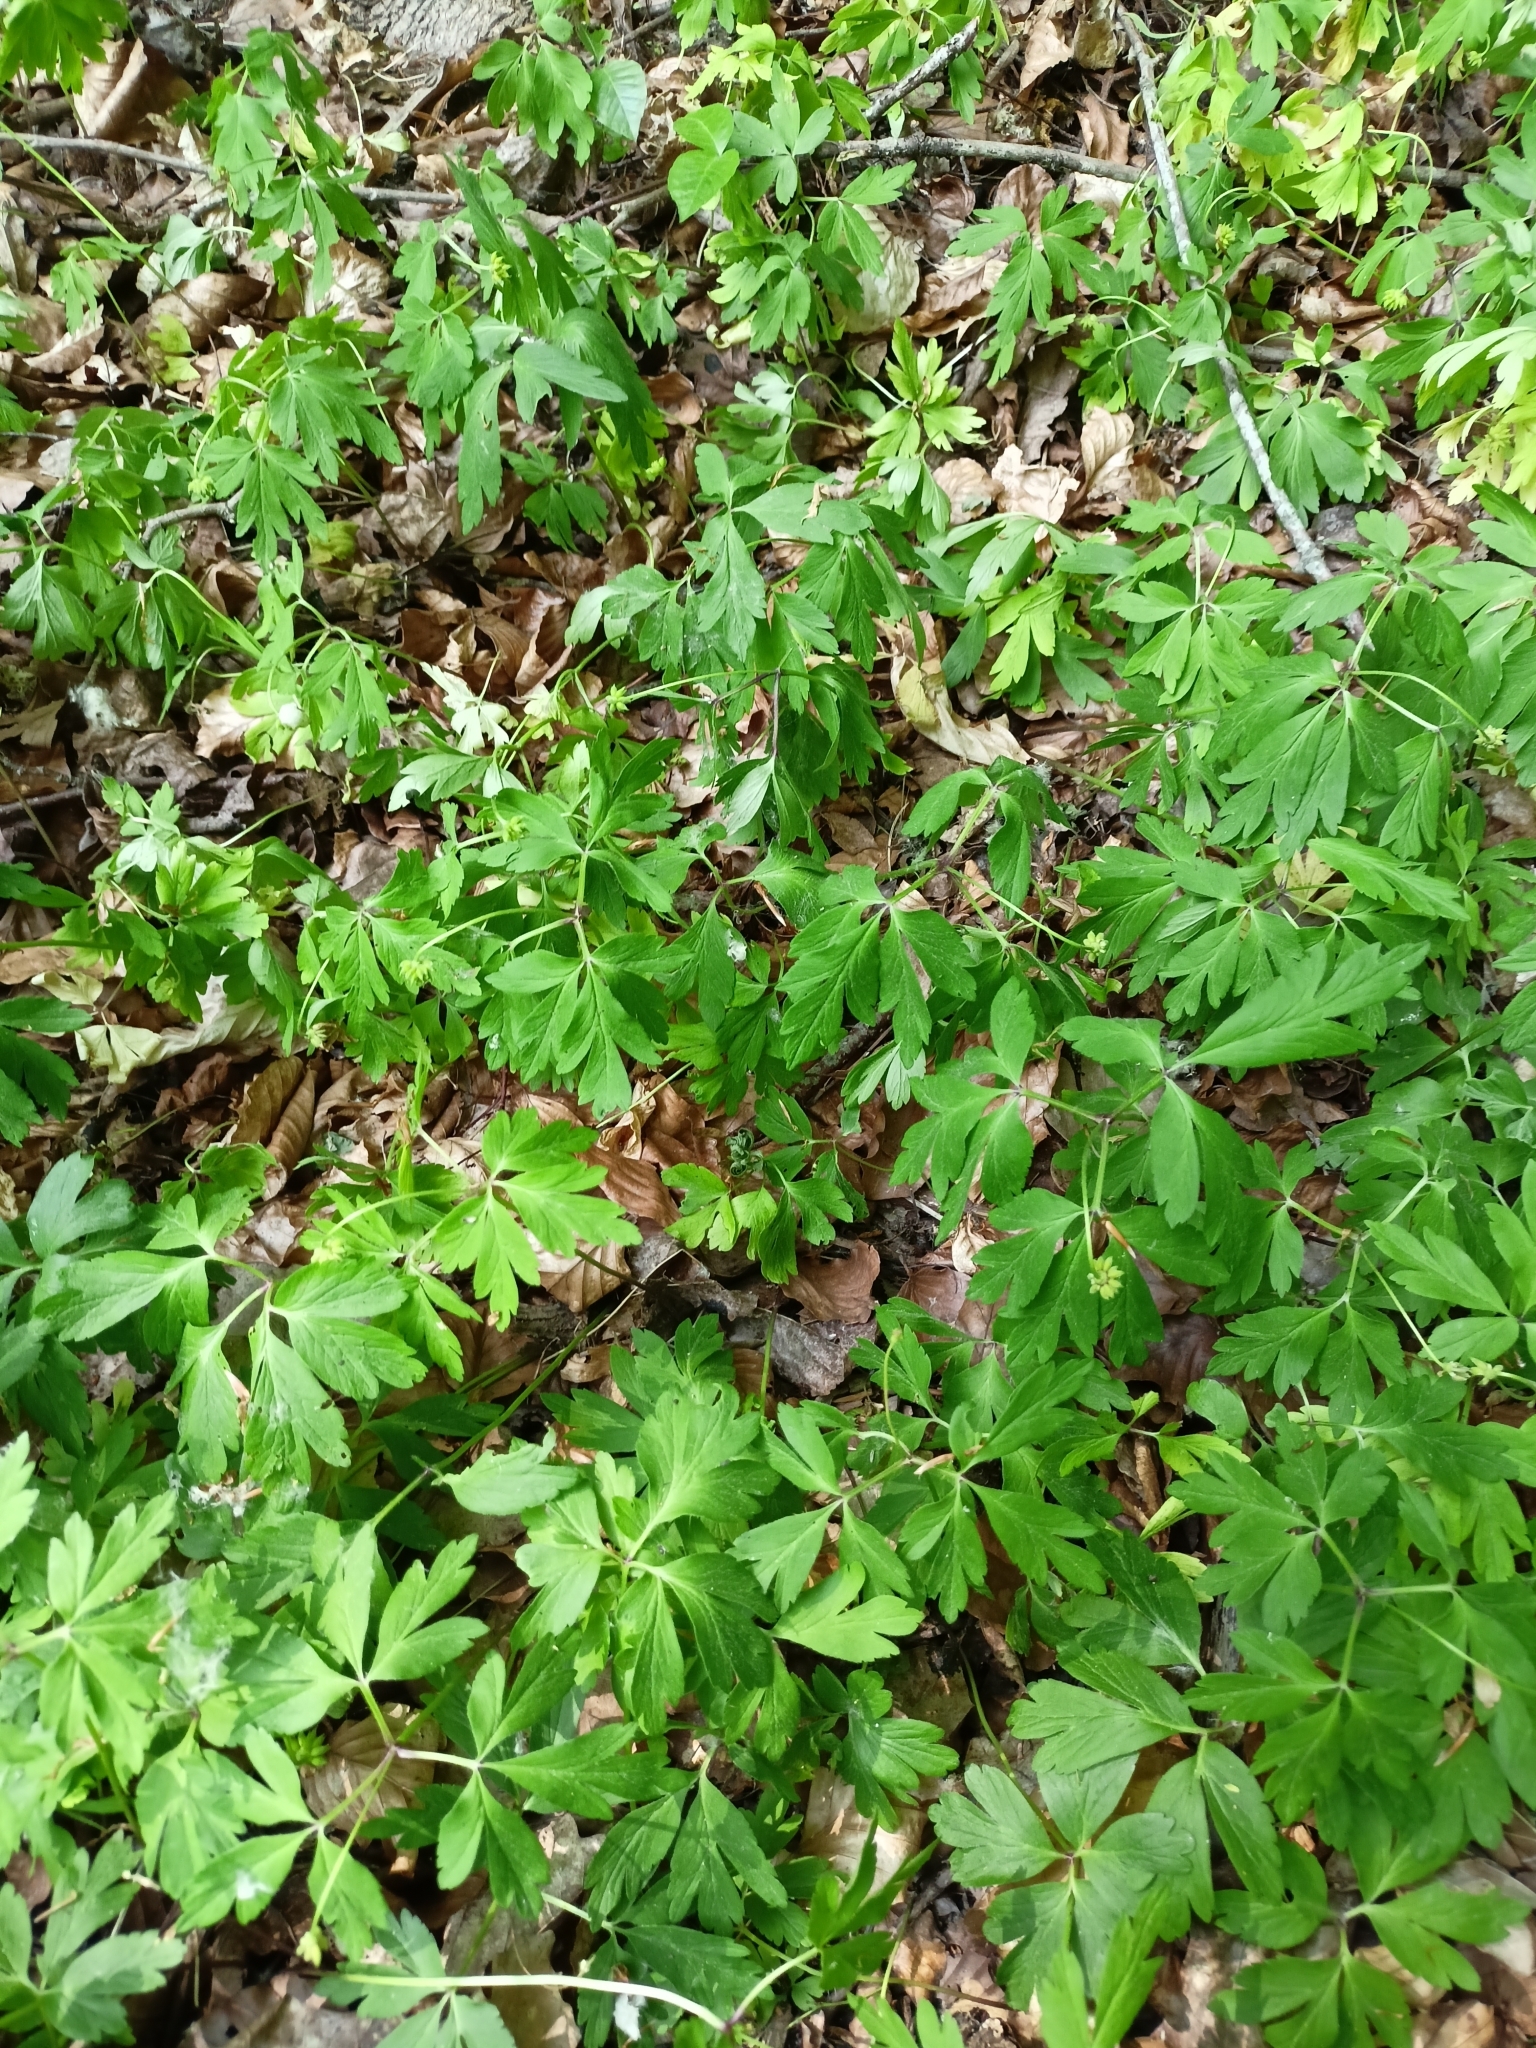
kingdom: Plantae
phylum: Tracheophyta
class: Magnoliopsida
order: Ranunculales
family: Ranunculaceae
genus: Anemone
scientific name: Anemone nemorosa
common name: Wood anemone
